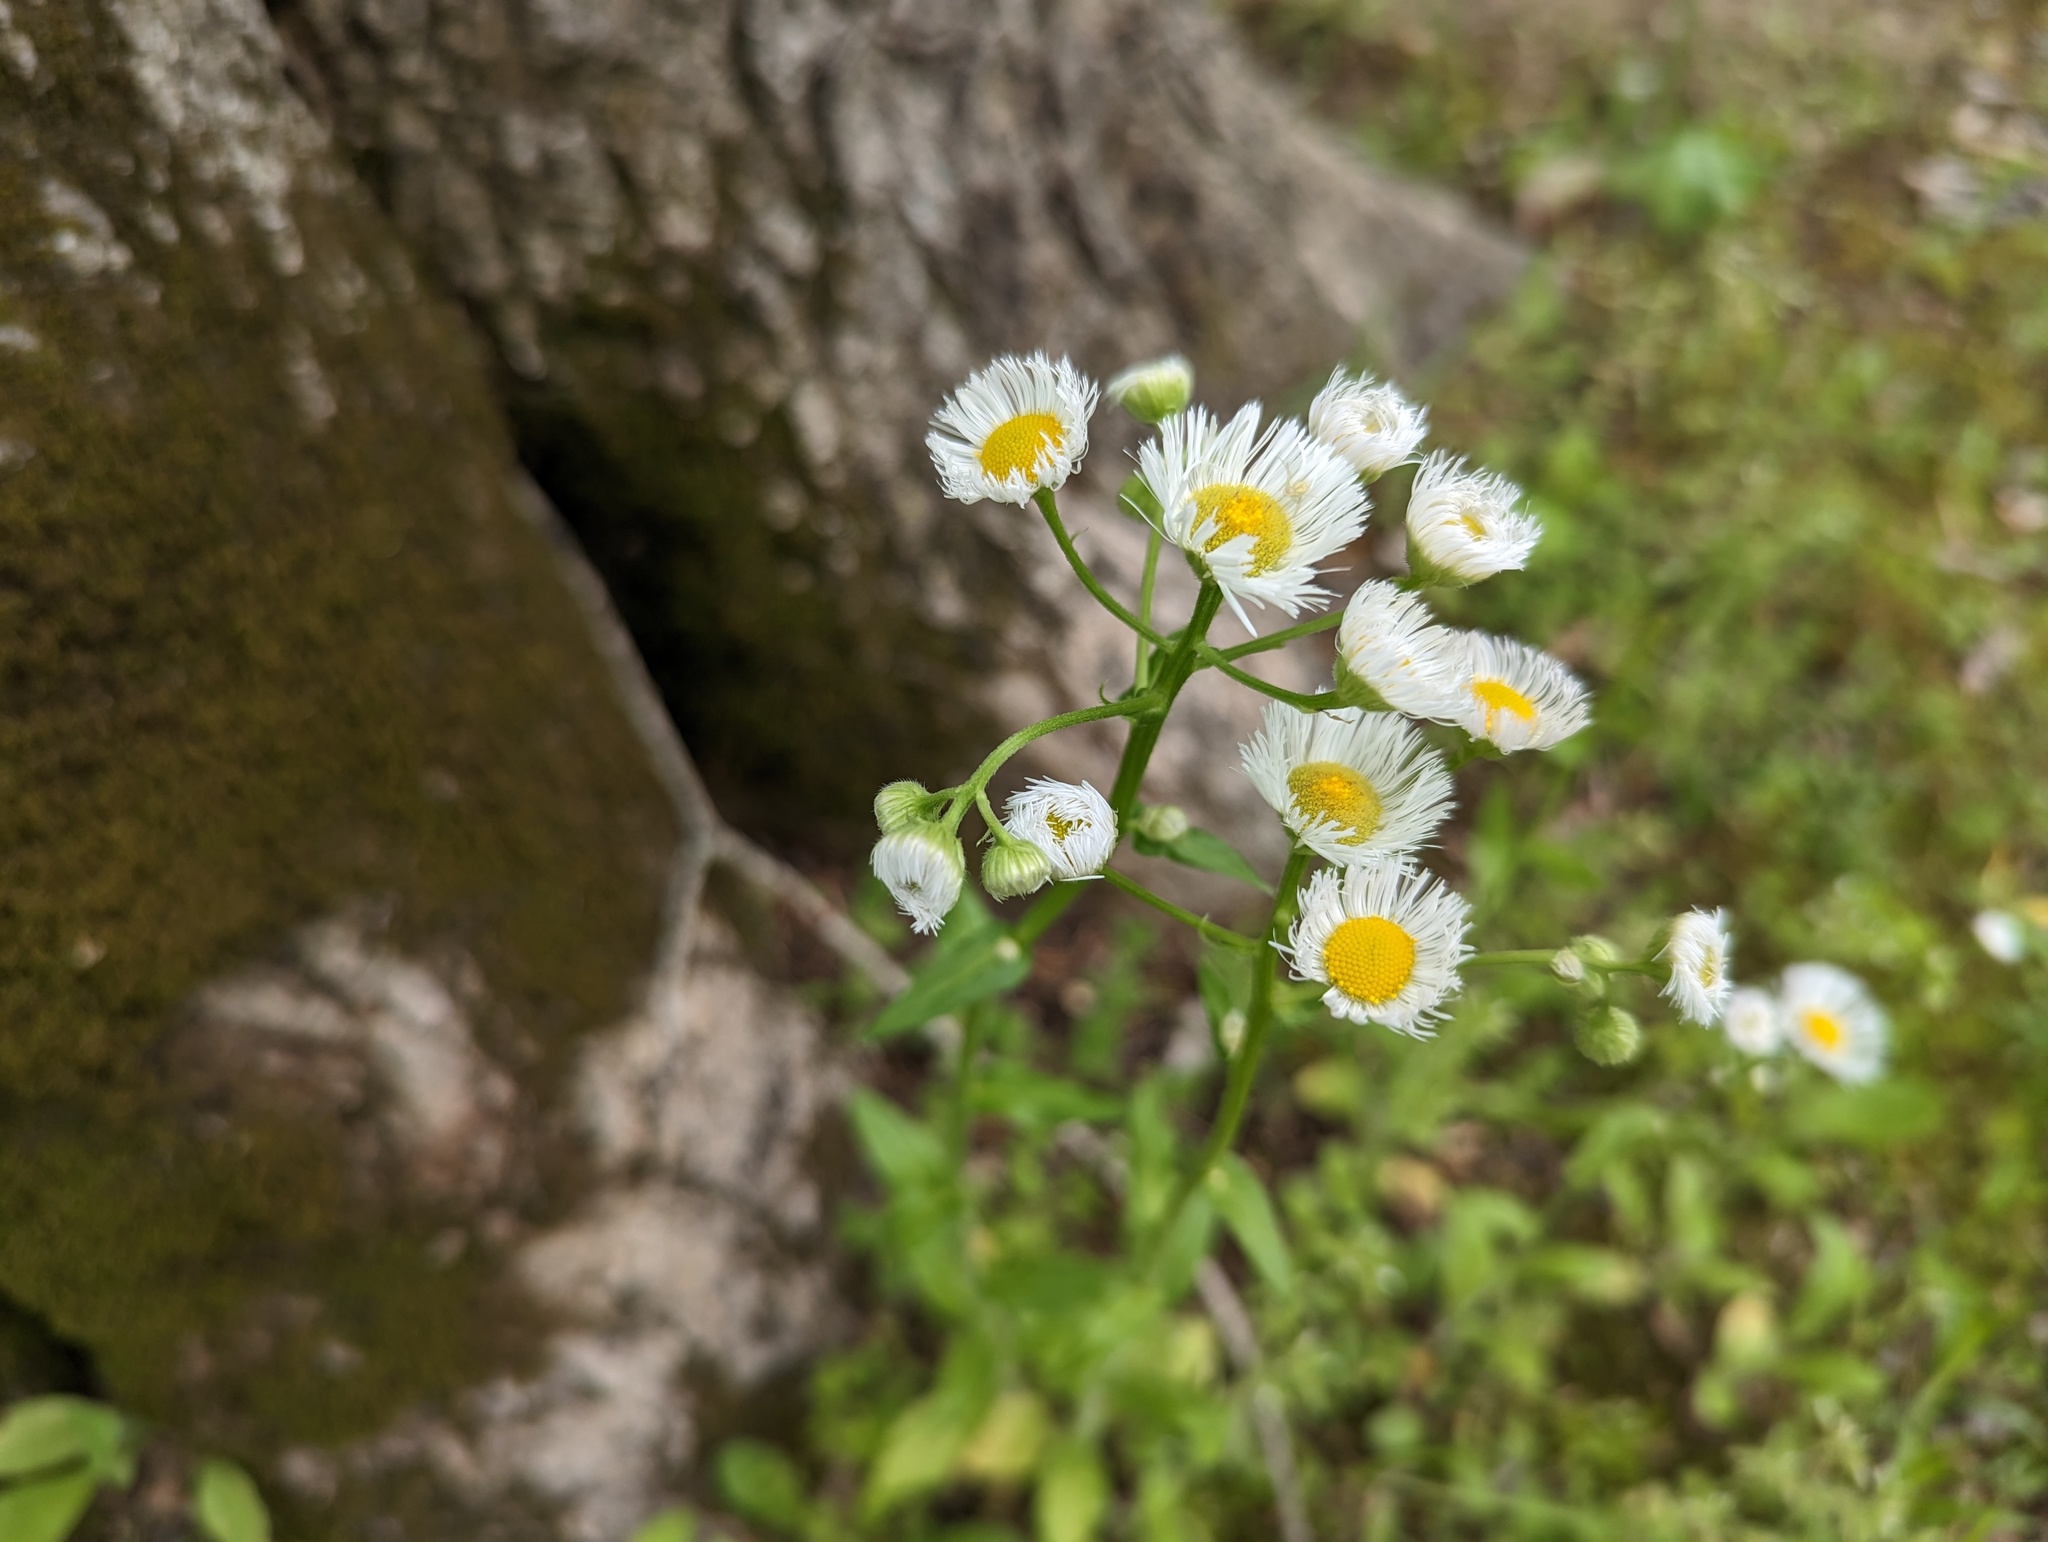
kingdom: Plantae
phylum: Tracheophyta
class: Magnoliopsida
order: Asterales
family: Asteraceae
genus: Erigeron
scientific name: Erigeron philadelphicus
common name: Robin's-plantain
